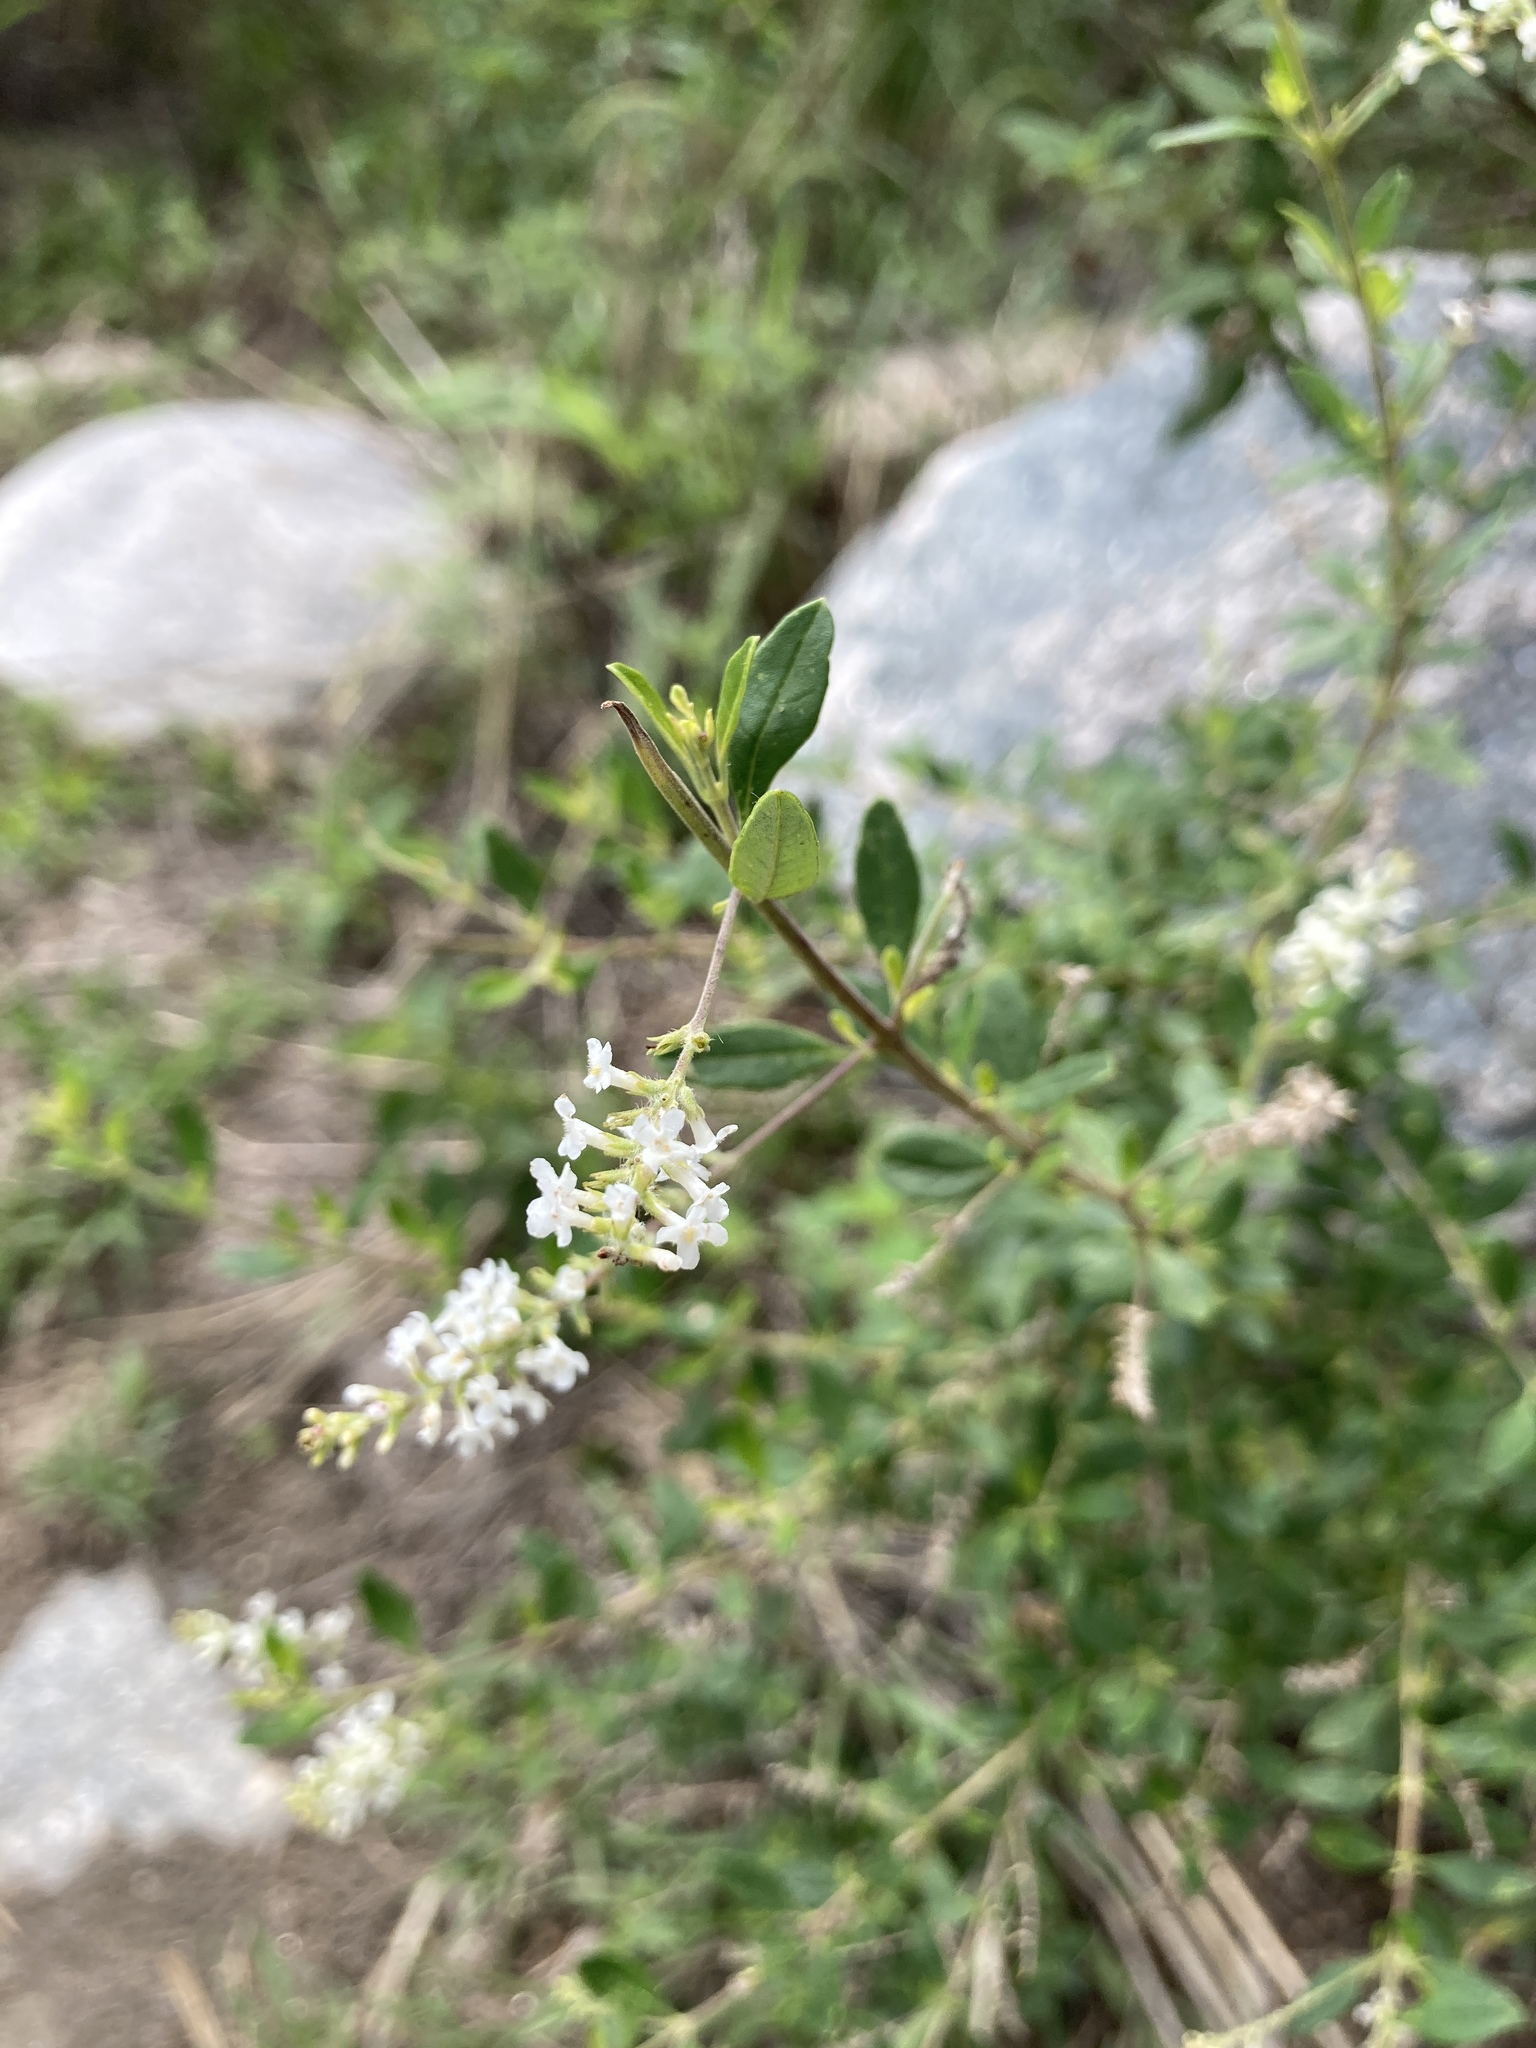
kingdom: Plantae
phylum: Tracheophyta
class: Magnoliopsida
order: Lamiales
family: Verbenaceae
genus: Aloysia
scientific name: Aloysia gratissima
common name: Common bee-brush
